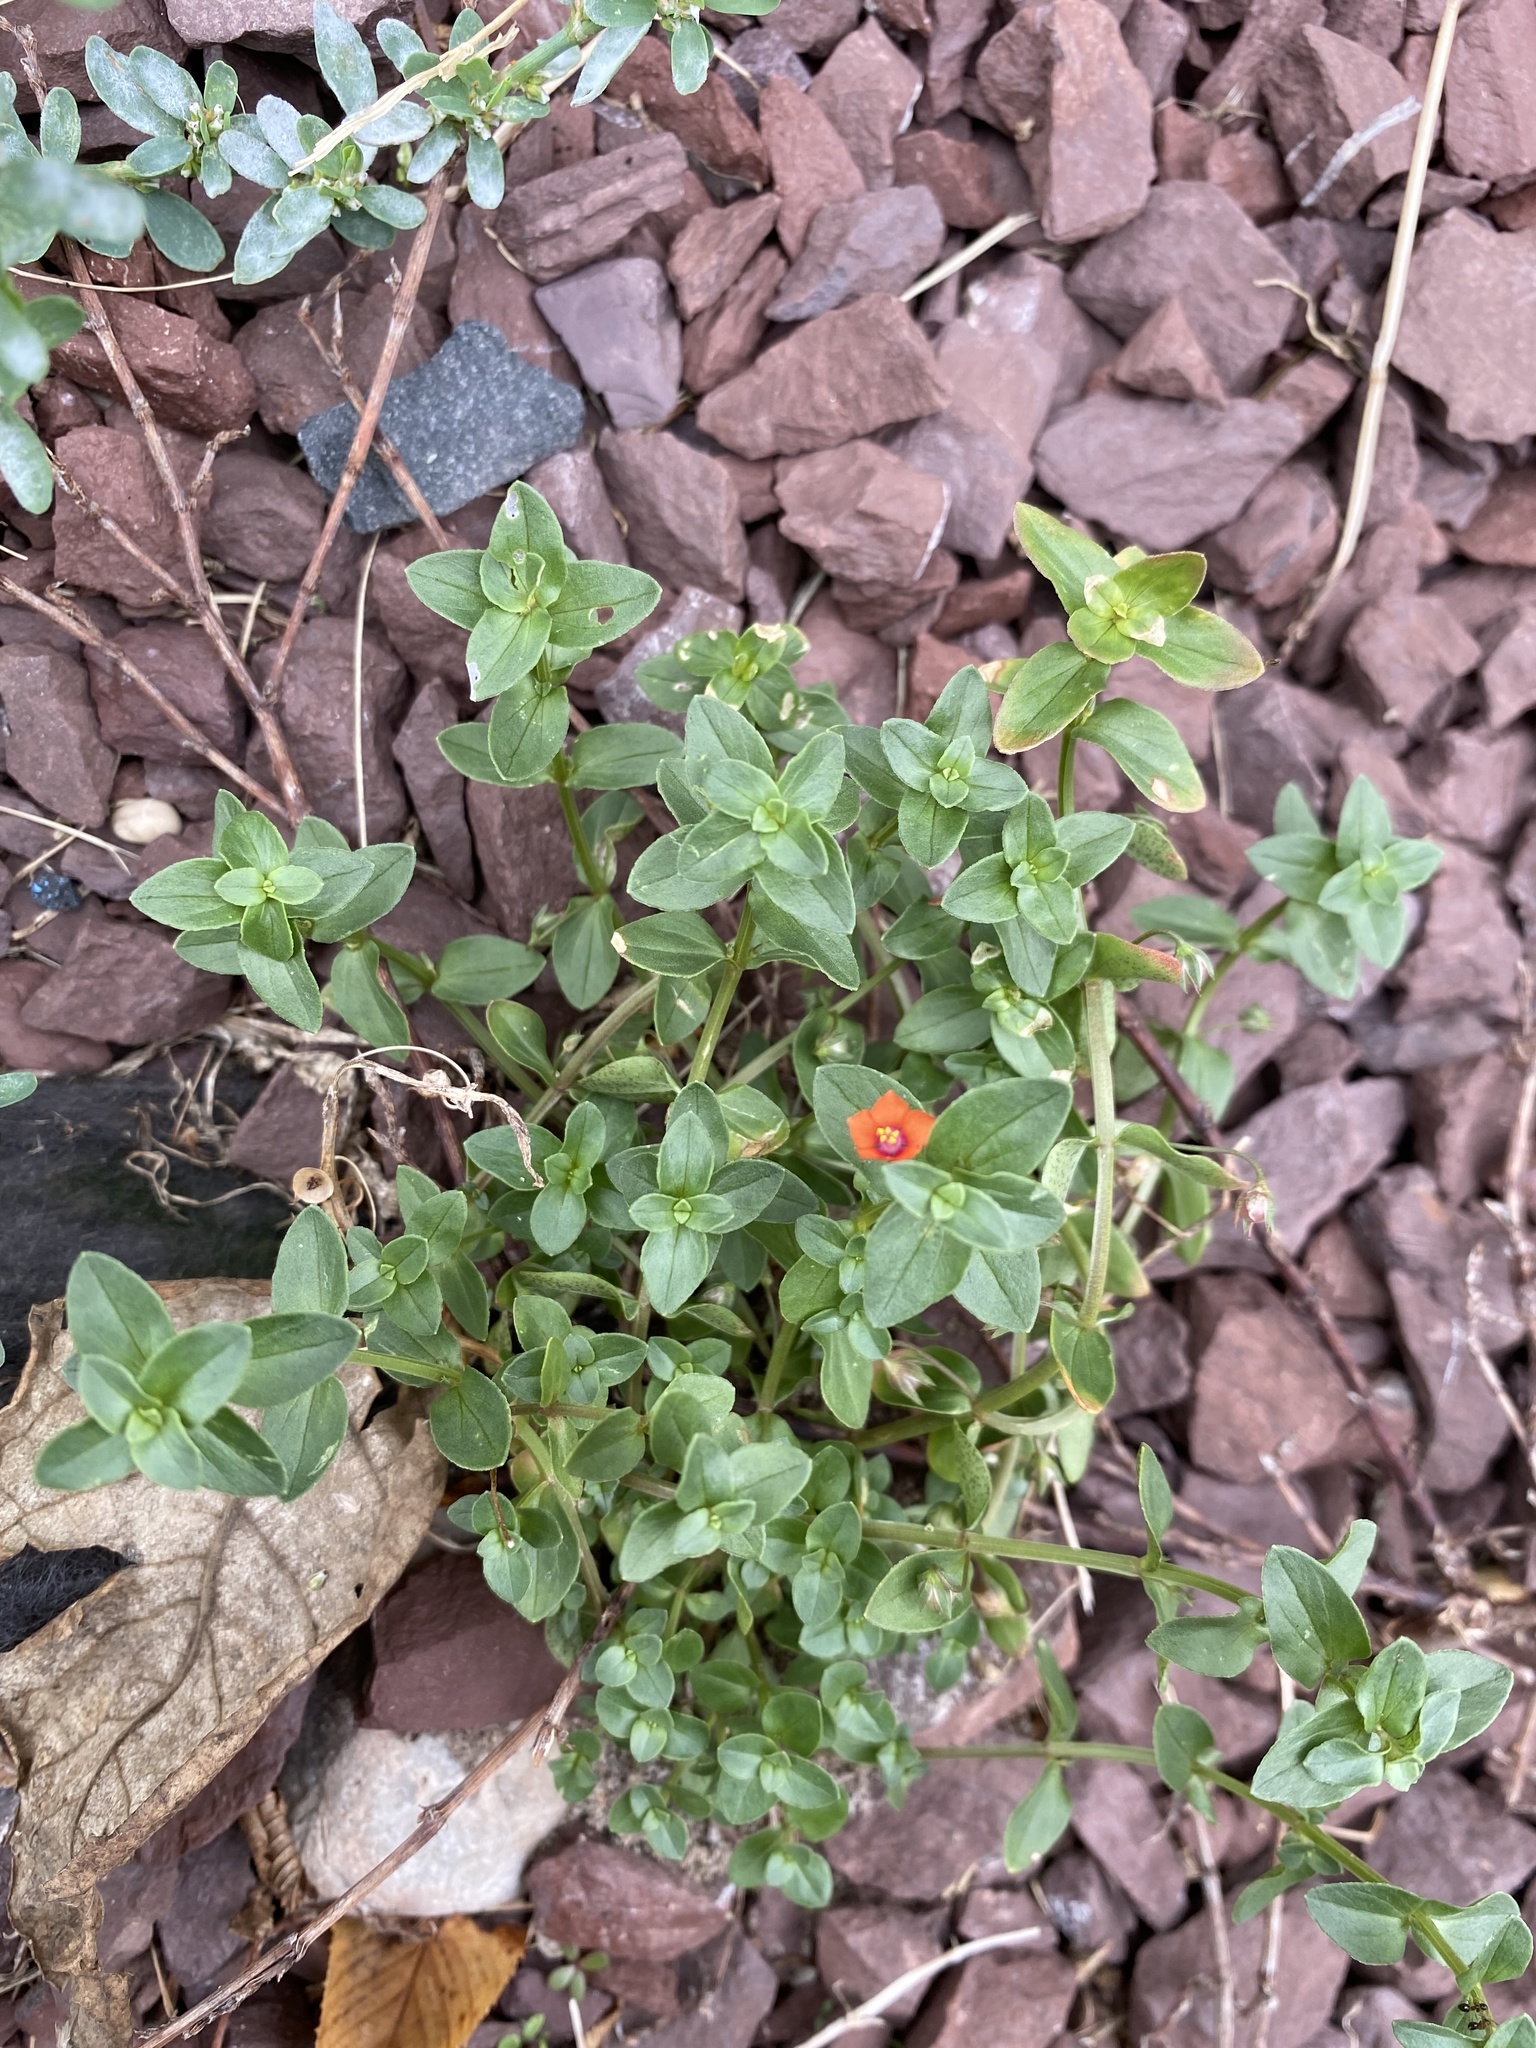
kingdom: Plantae
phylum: Tracheophyta
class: Magnoliopsida
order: Ericales
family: Primulaceae
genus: Lysimachia
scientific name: Lysimachia arvensis
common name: Scarlet pimpernel
